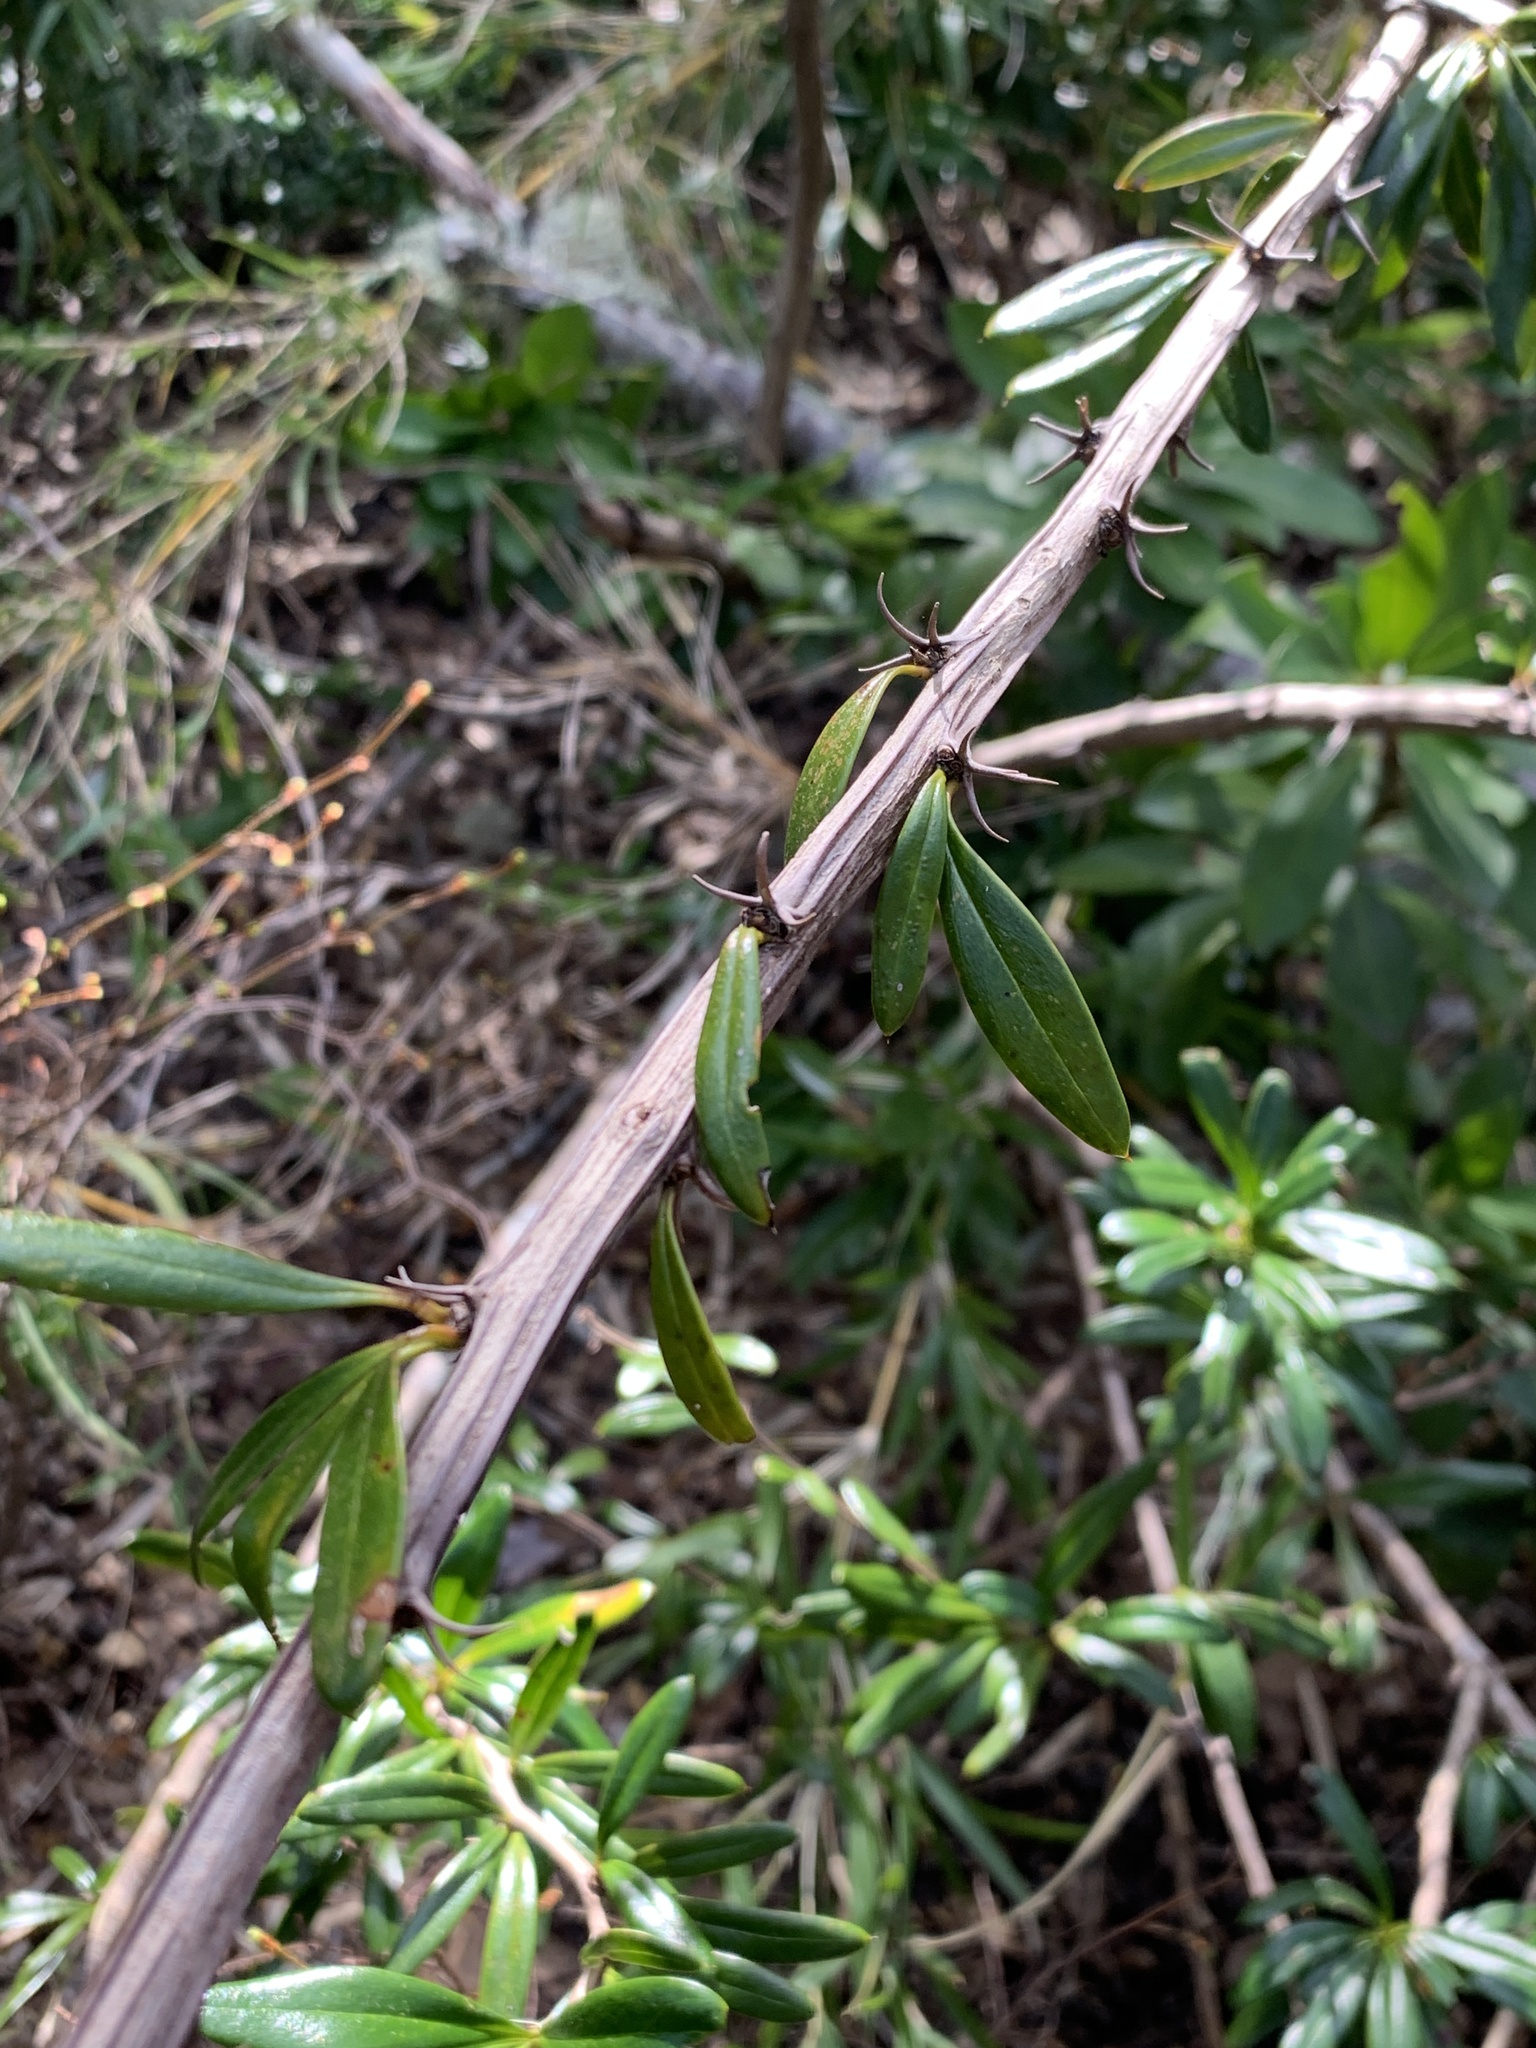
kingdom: Plantae
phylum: Tracheophyta
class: Magnoliopsida
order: Ranunculales
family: Berberidaceae
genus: Berberis
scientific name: Berberis trigona
